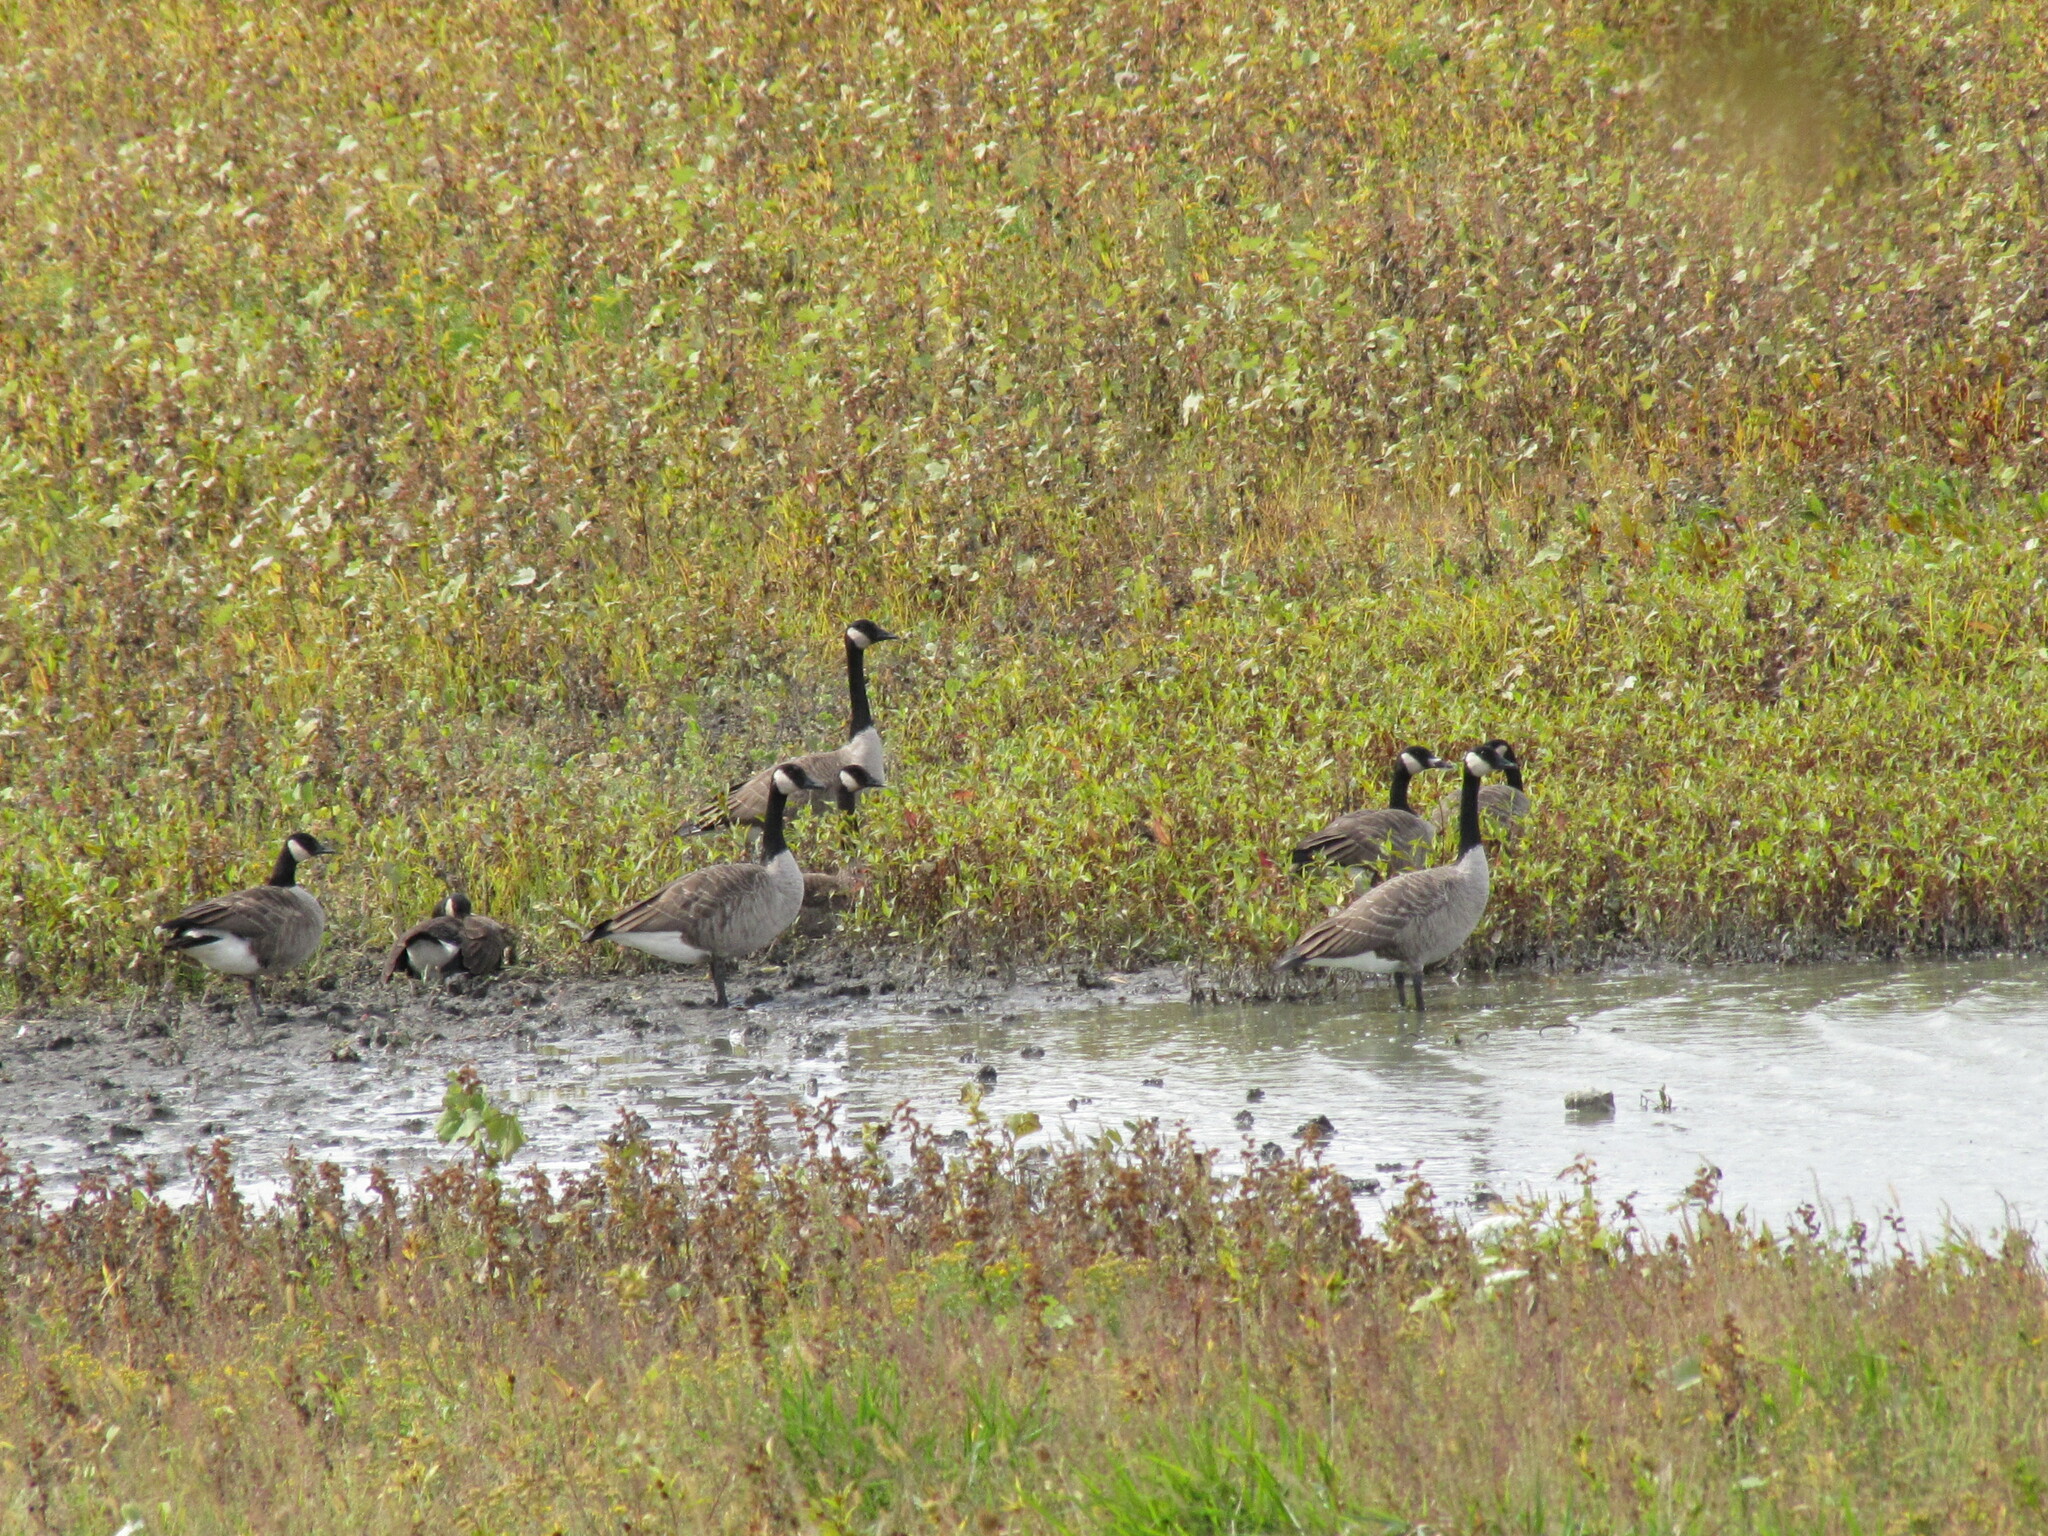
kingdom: Animalia
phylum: Chordata
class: Aves
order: Anseriformes
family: Anatidae
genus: Branta
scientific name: Branta canadensis
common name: Canada goose
